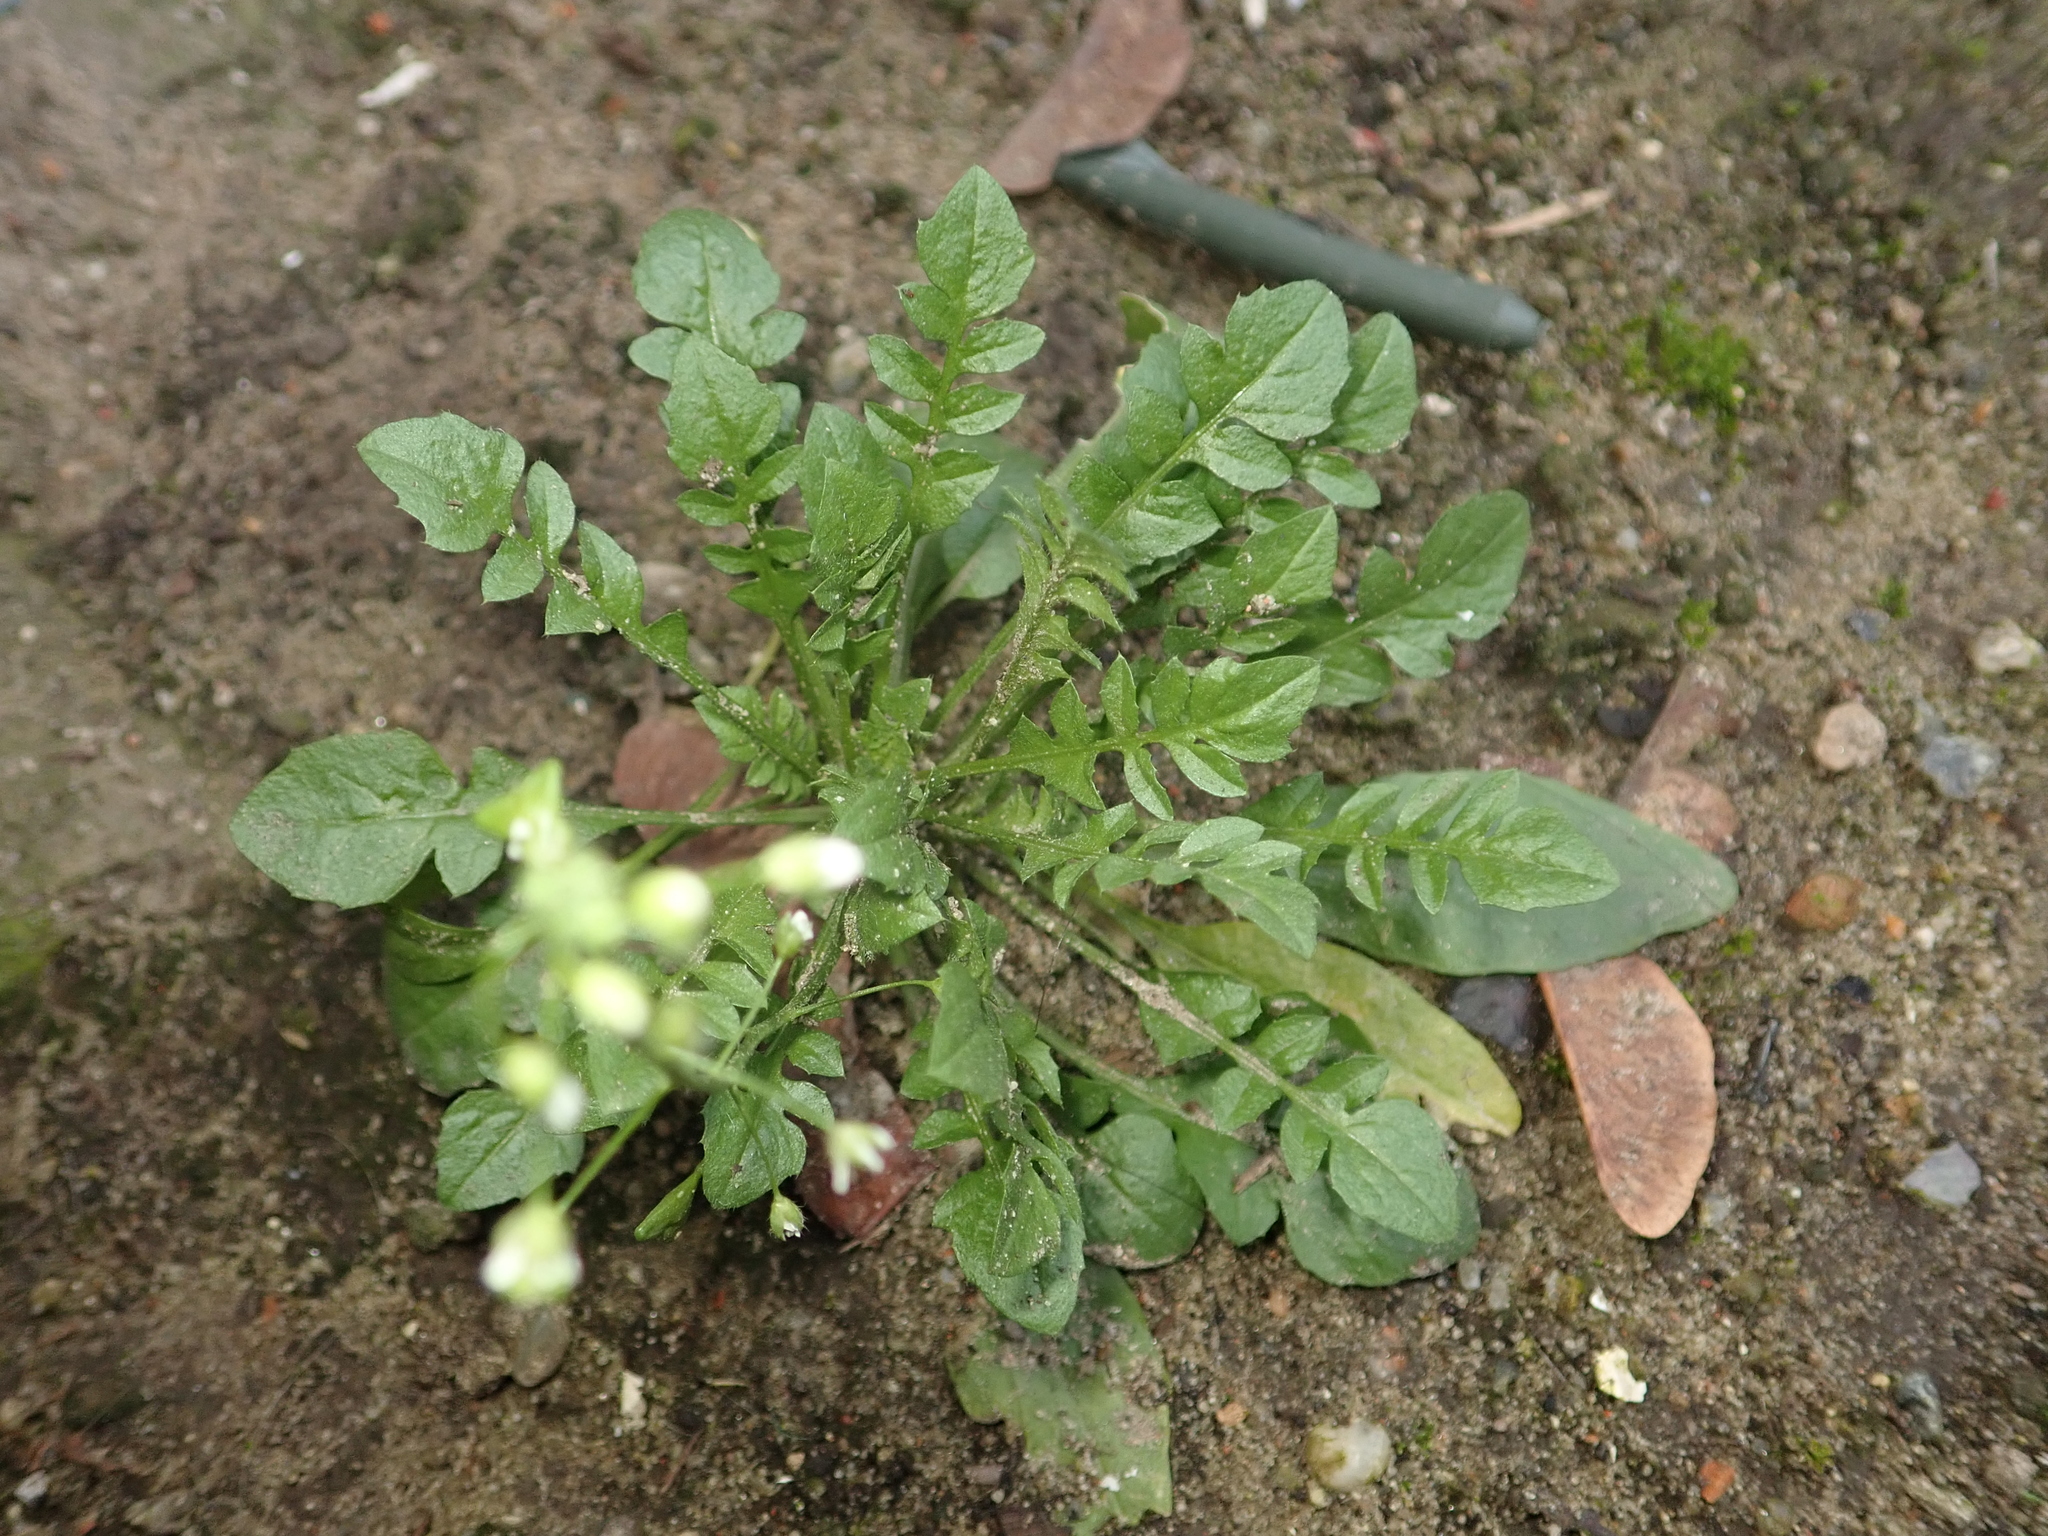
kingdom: Plantae
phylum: Tracheophyta
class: Magnoliopsida
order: Brassicales
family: Brassicaceae
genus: Capsella
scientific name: Capsella bursa-pastoris
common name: Shepherd's purse
